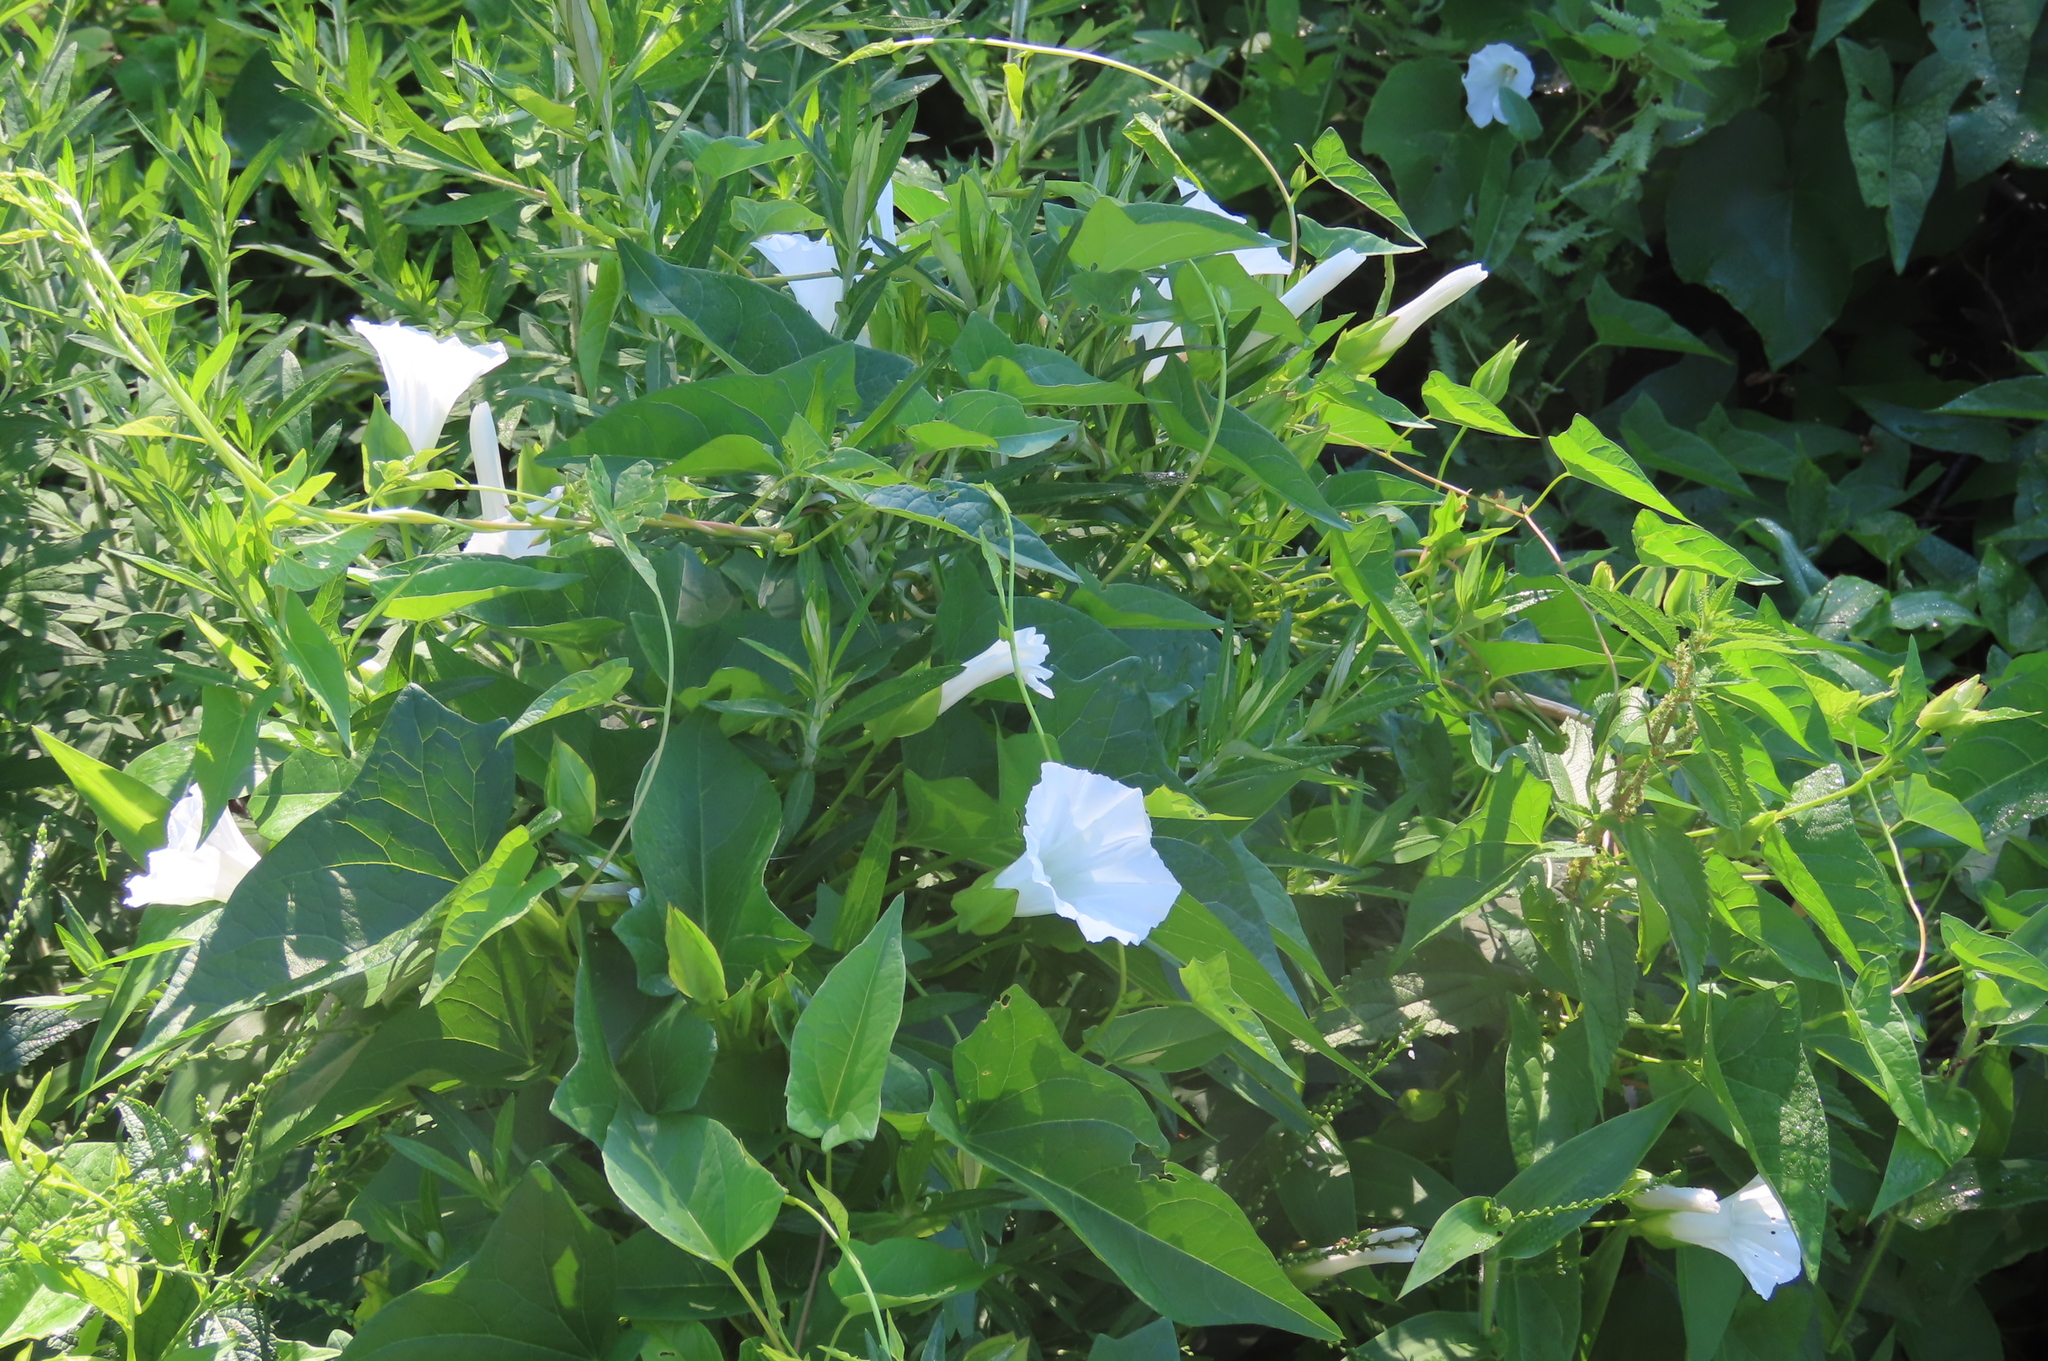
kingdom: Plantae
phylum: Tracheophyta
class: Magnoliopsida
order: Solanales
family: Convolvulaceae
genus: Calystegia
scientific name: Calystegia sepium
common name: Hedge bindweed
